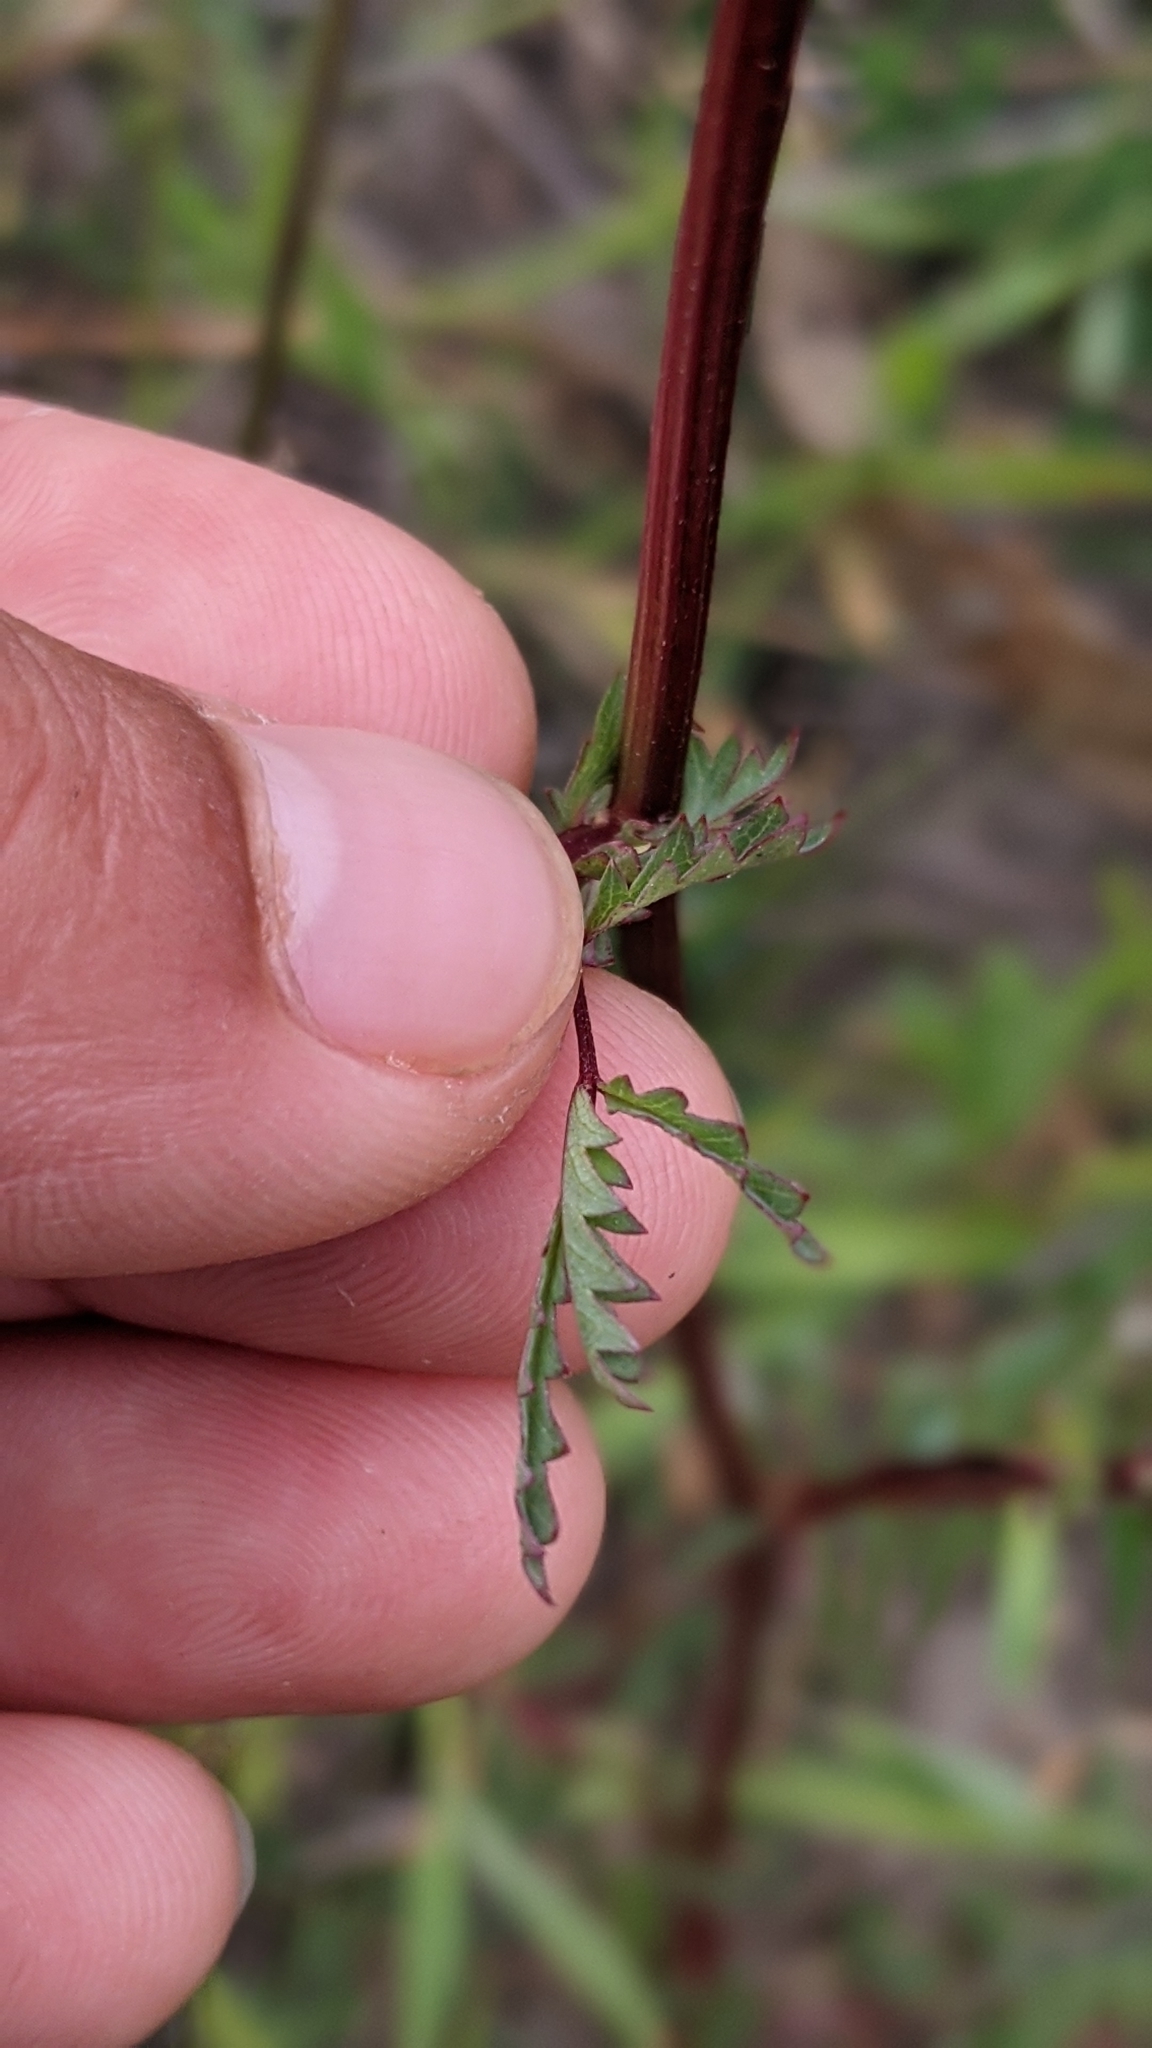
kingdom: Plantae
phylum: Tracheophyta
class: Magnoliopsida
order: Rosales
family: Rosaceae
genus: Poterium
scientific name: Poterium sanguisorba
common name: Salad burnet
